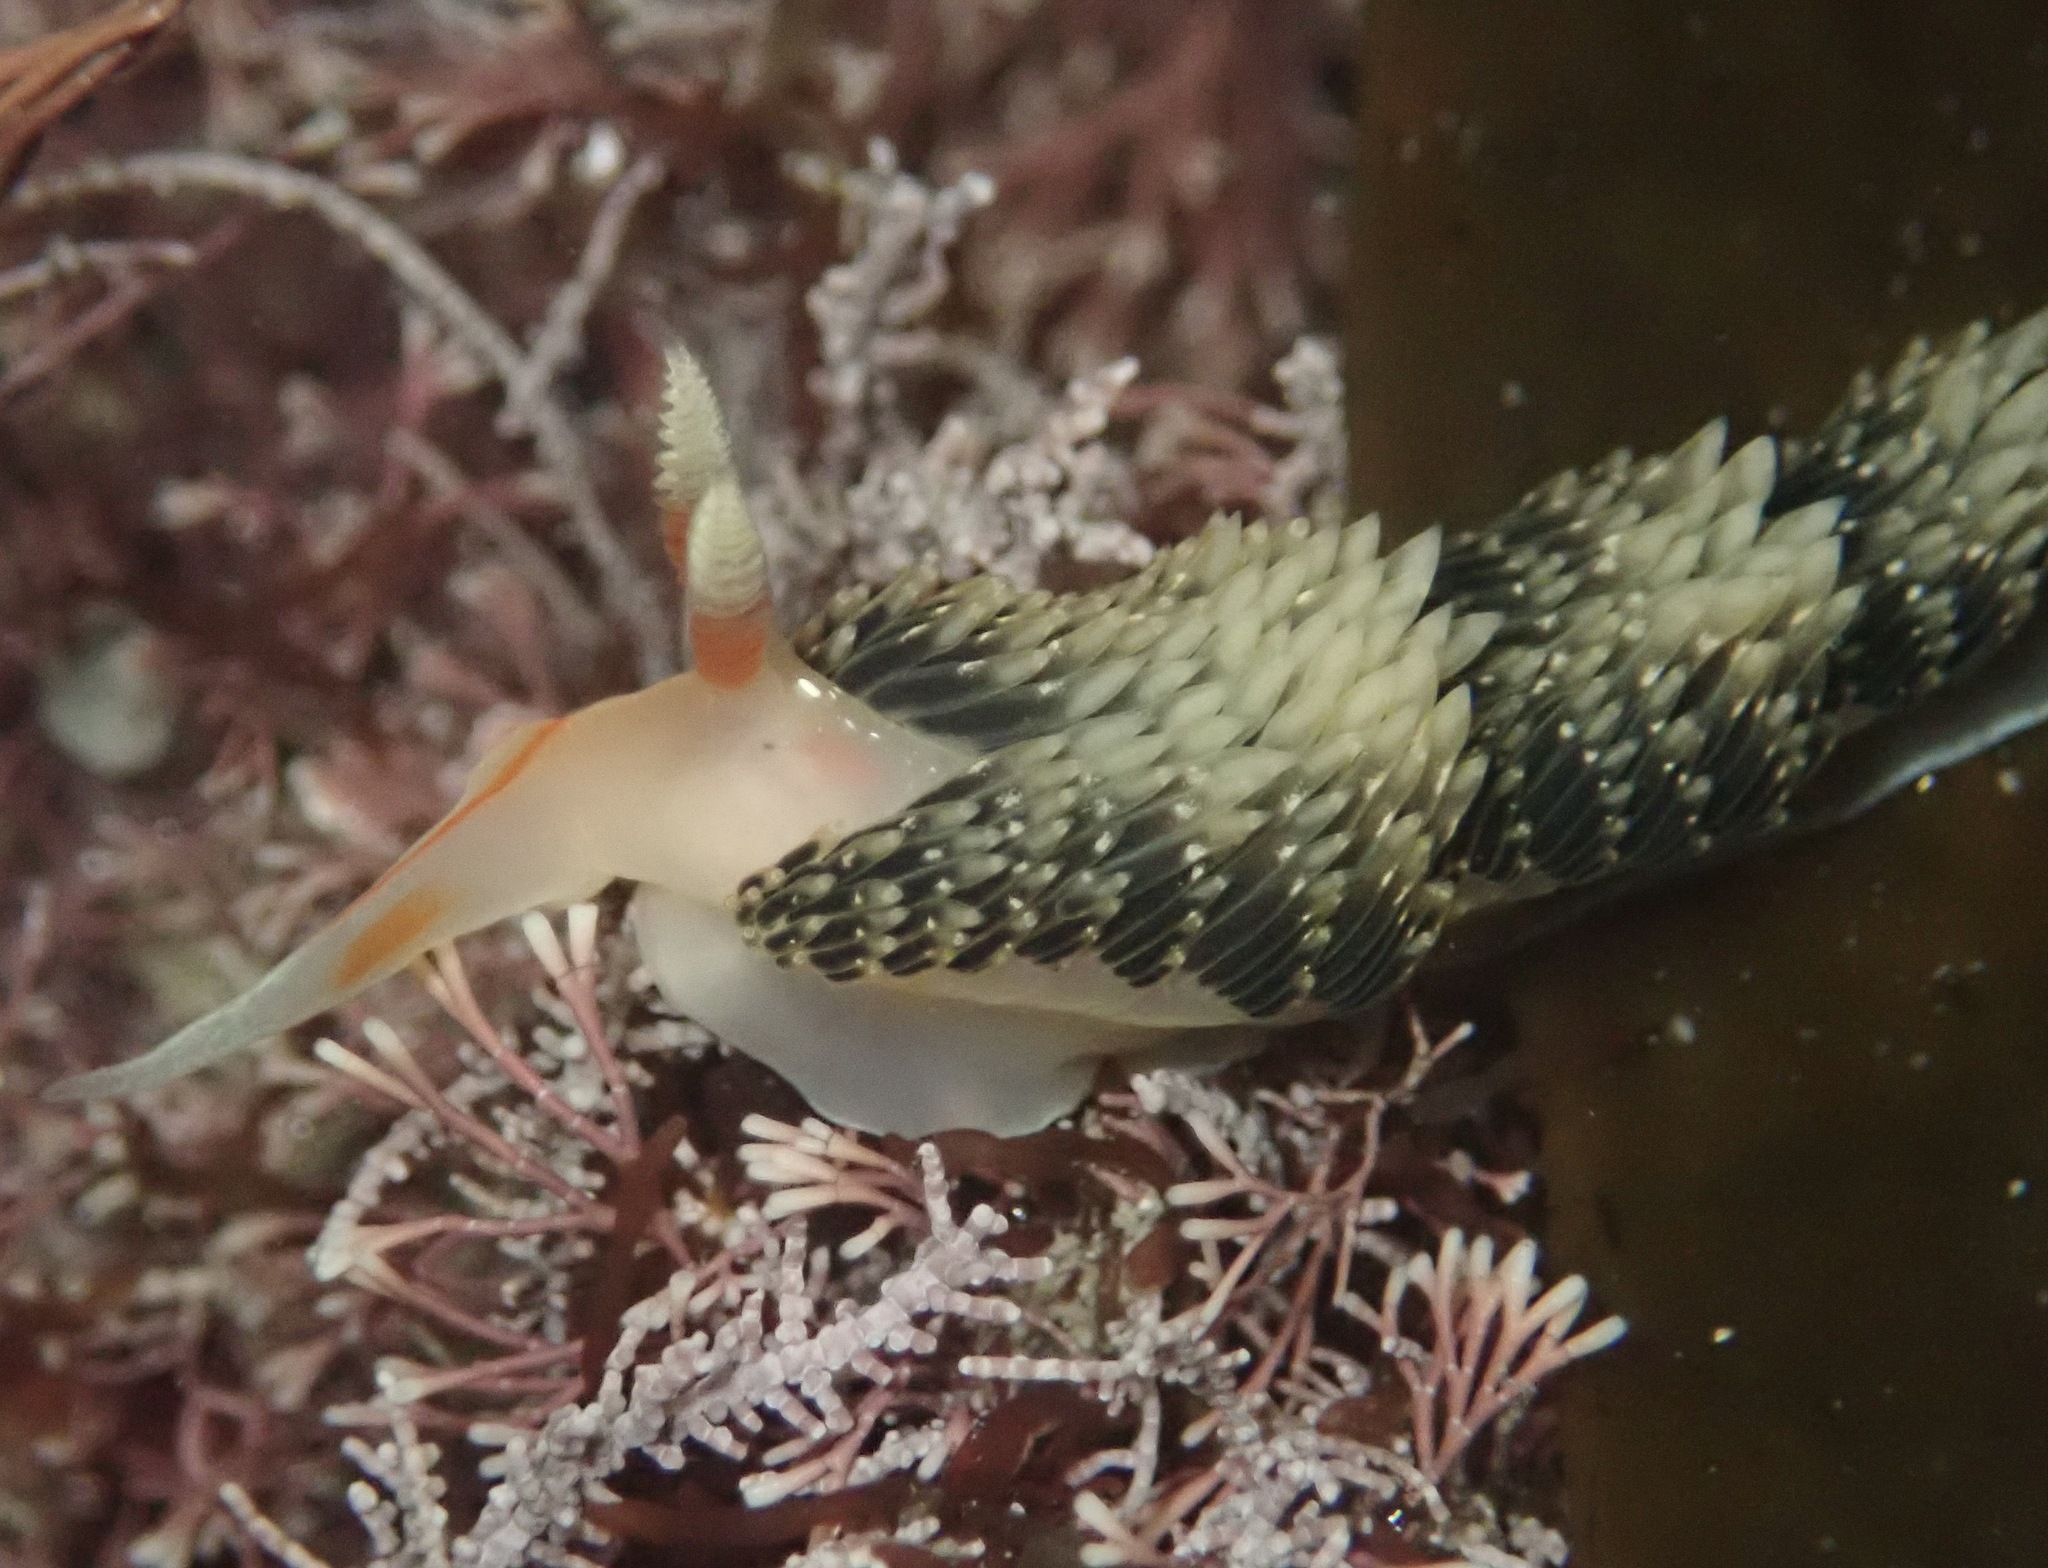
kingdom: Animalia
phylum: Mollusca
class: Gastropoda
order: Nudibranchia
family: Facelinidae
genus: Phidiana
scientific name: Phidiana hiltoni
